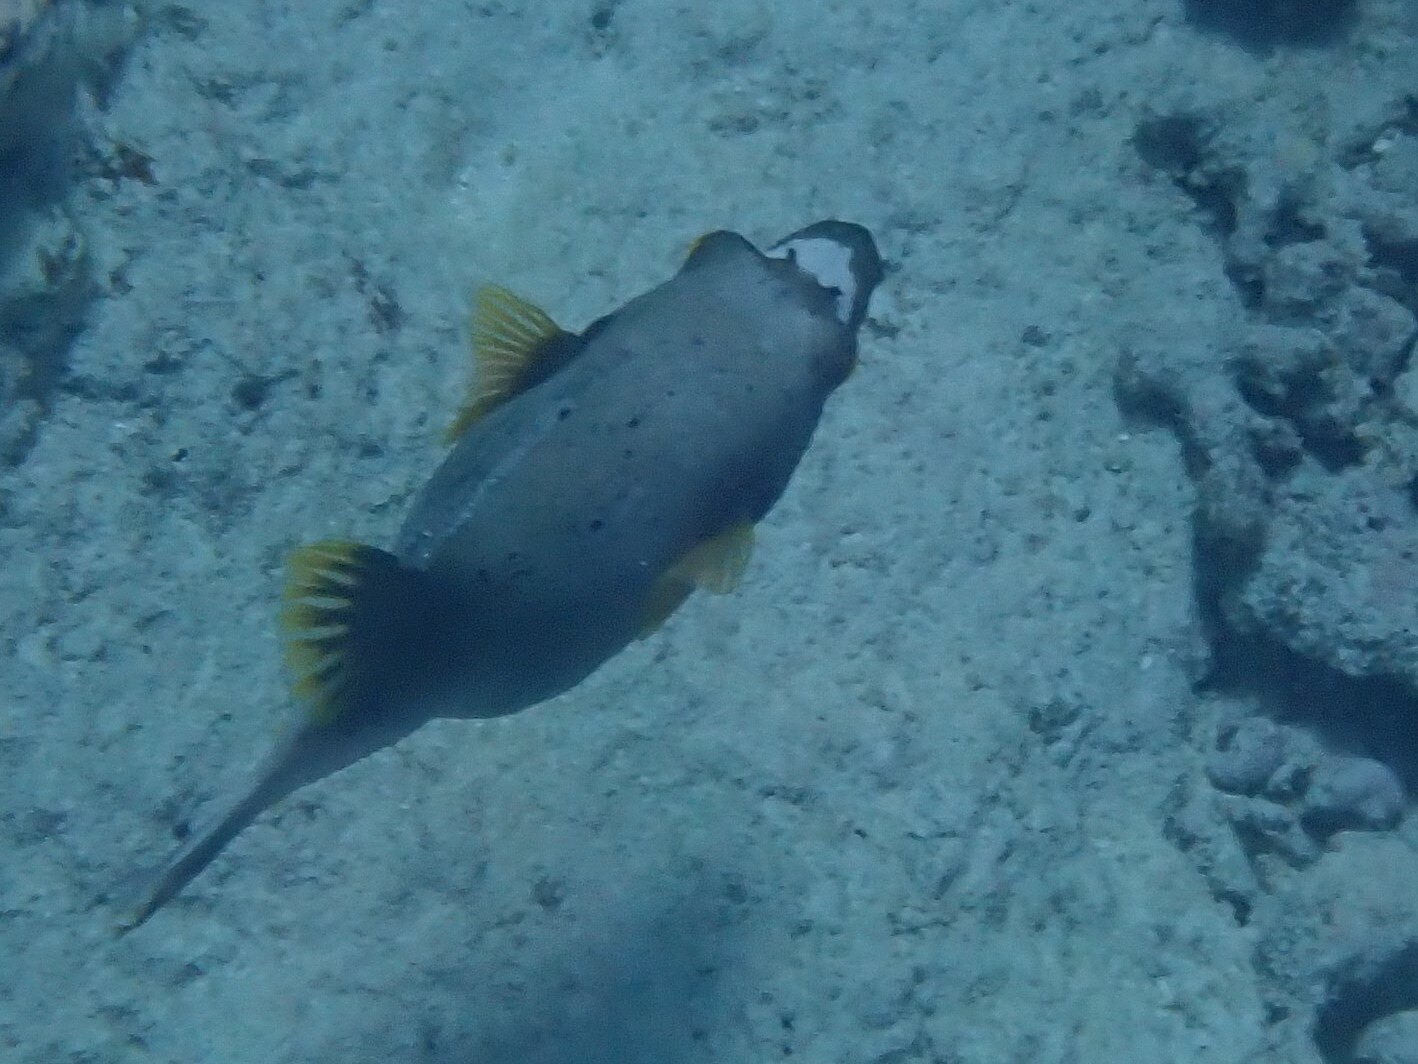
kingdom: Animalia
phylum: Chordata
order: Tetraodontiformes
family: Tetraodontidae
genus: Arothron
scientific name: Arothron nigropunctatus
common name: Black spotted blow fish
